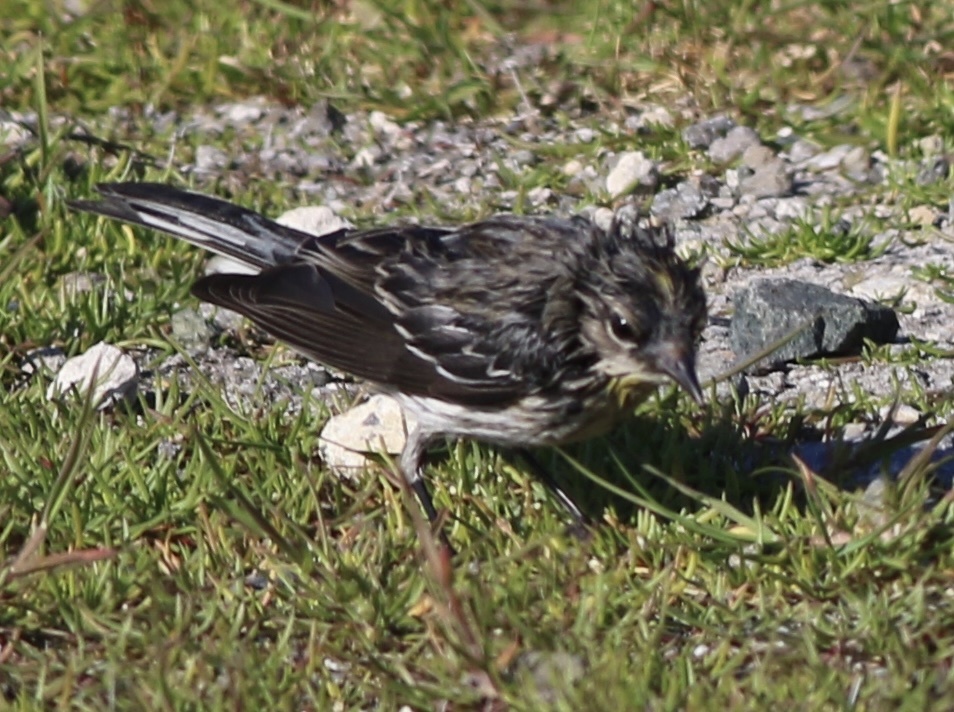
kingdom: Animalia
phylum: Chordata
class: Aves
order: Passeriformes
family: Parulidae
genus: Setophaga
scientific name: Setophaga coronata
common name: Myrtle warbler
